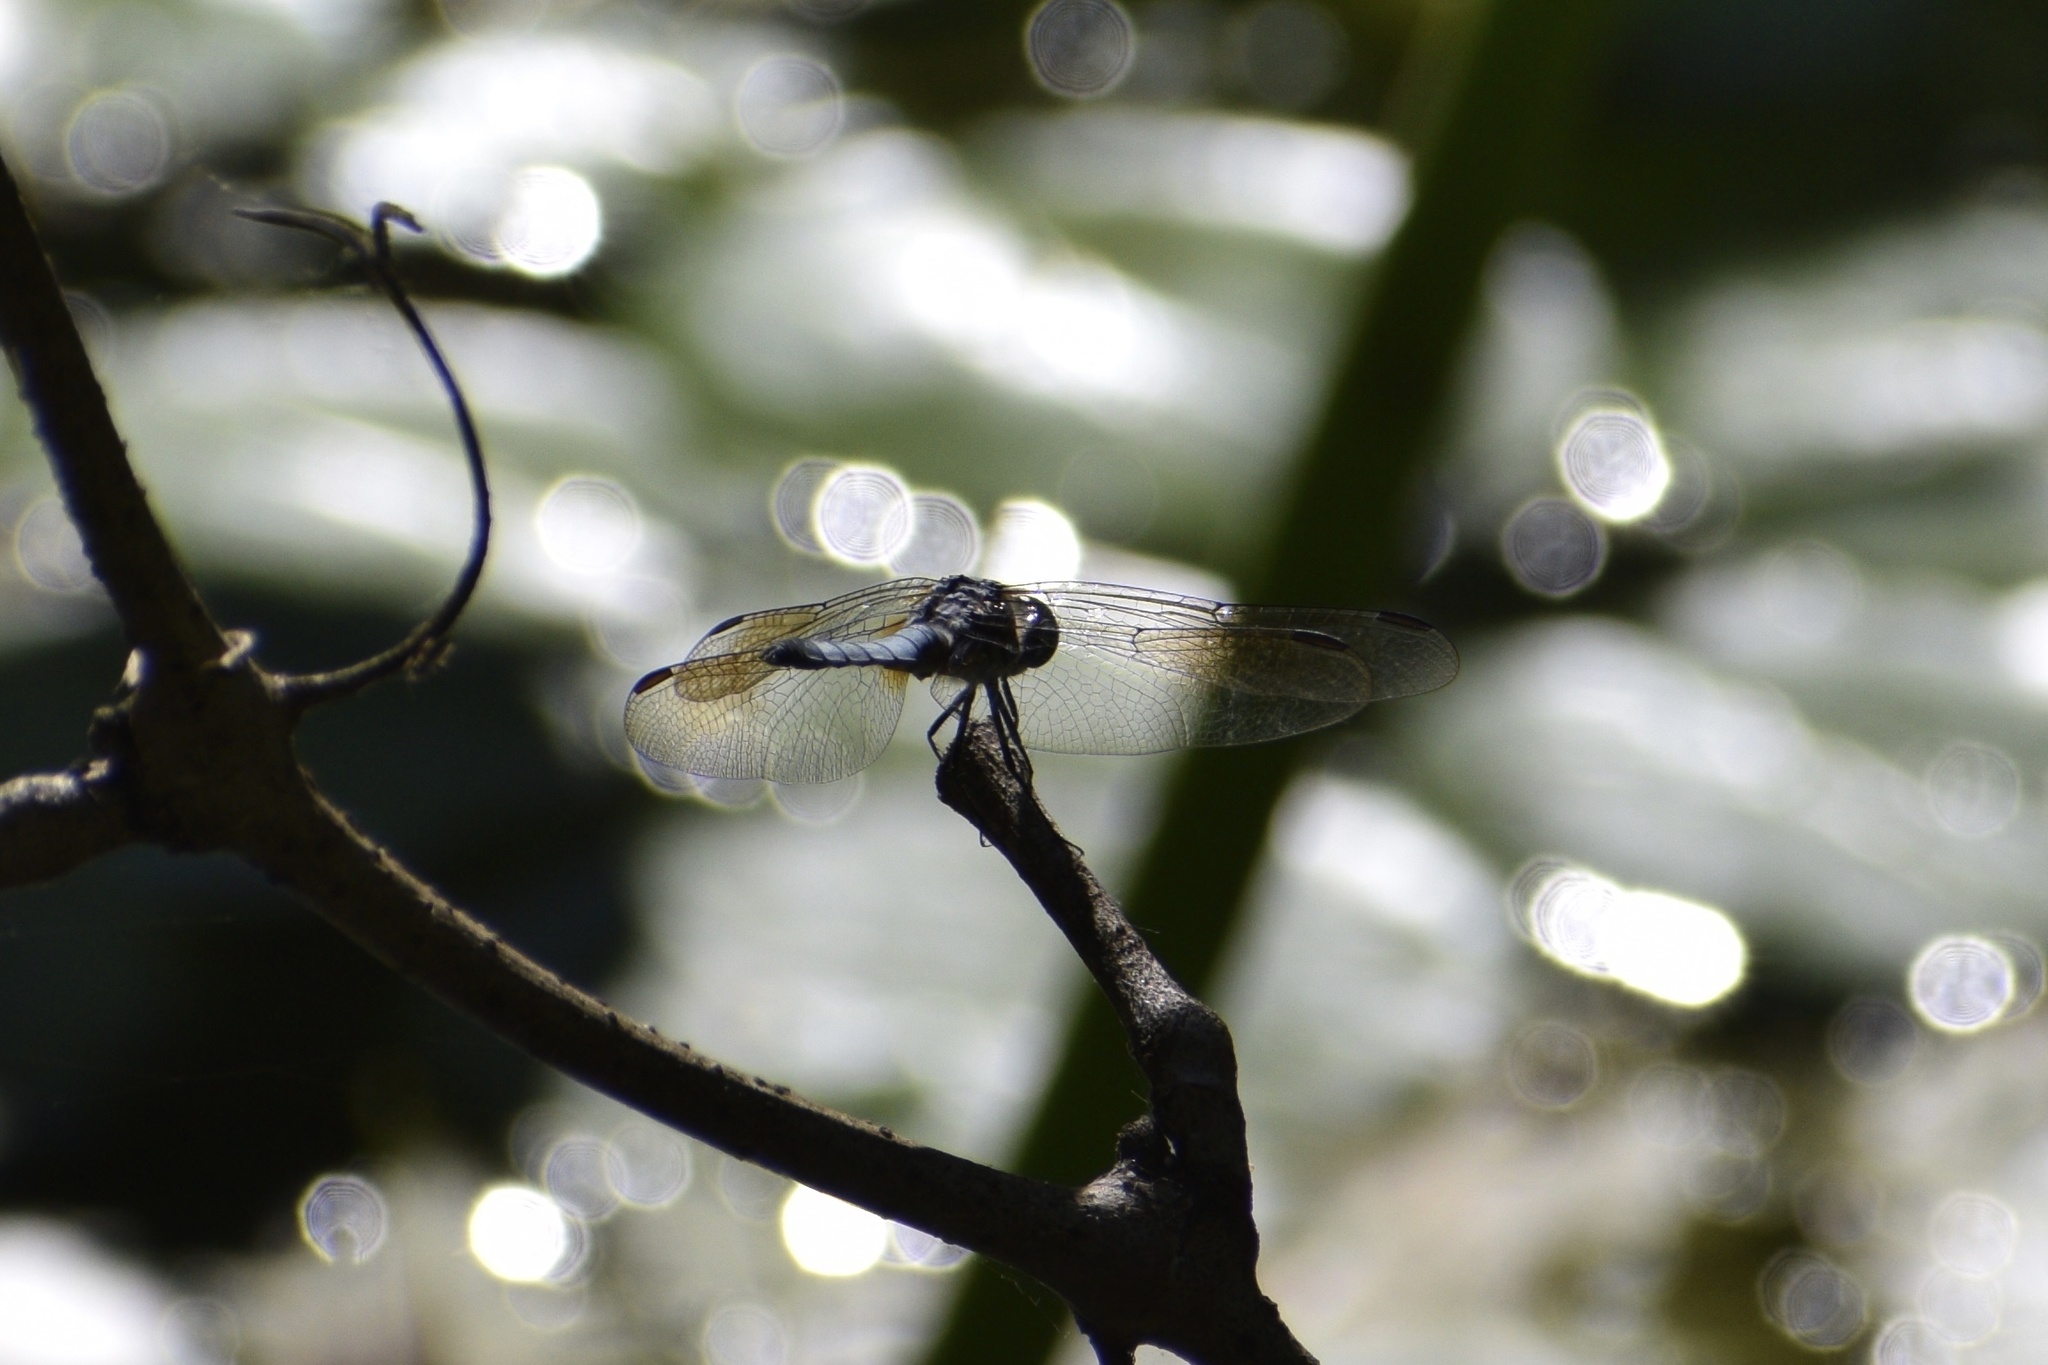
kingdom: Animalia
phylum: Arthropoda
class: Insecta
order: Odonata
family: Libellulidae
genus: Pachydiplax
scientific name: Pachydiplax longipennis
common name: Blue dasher
